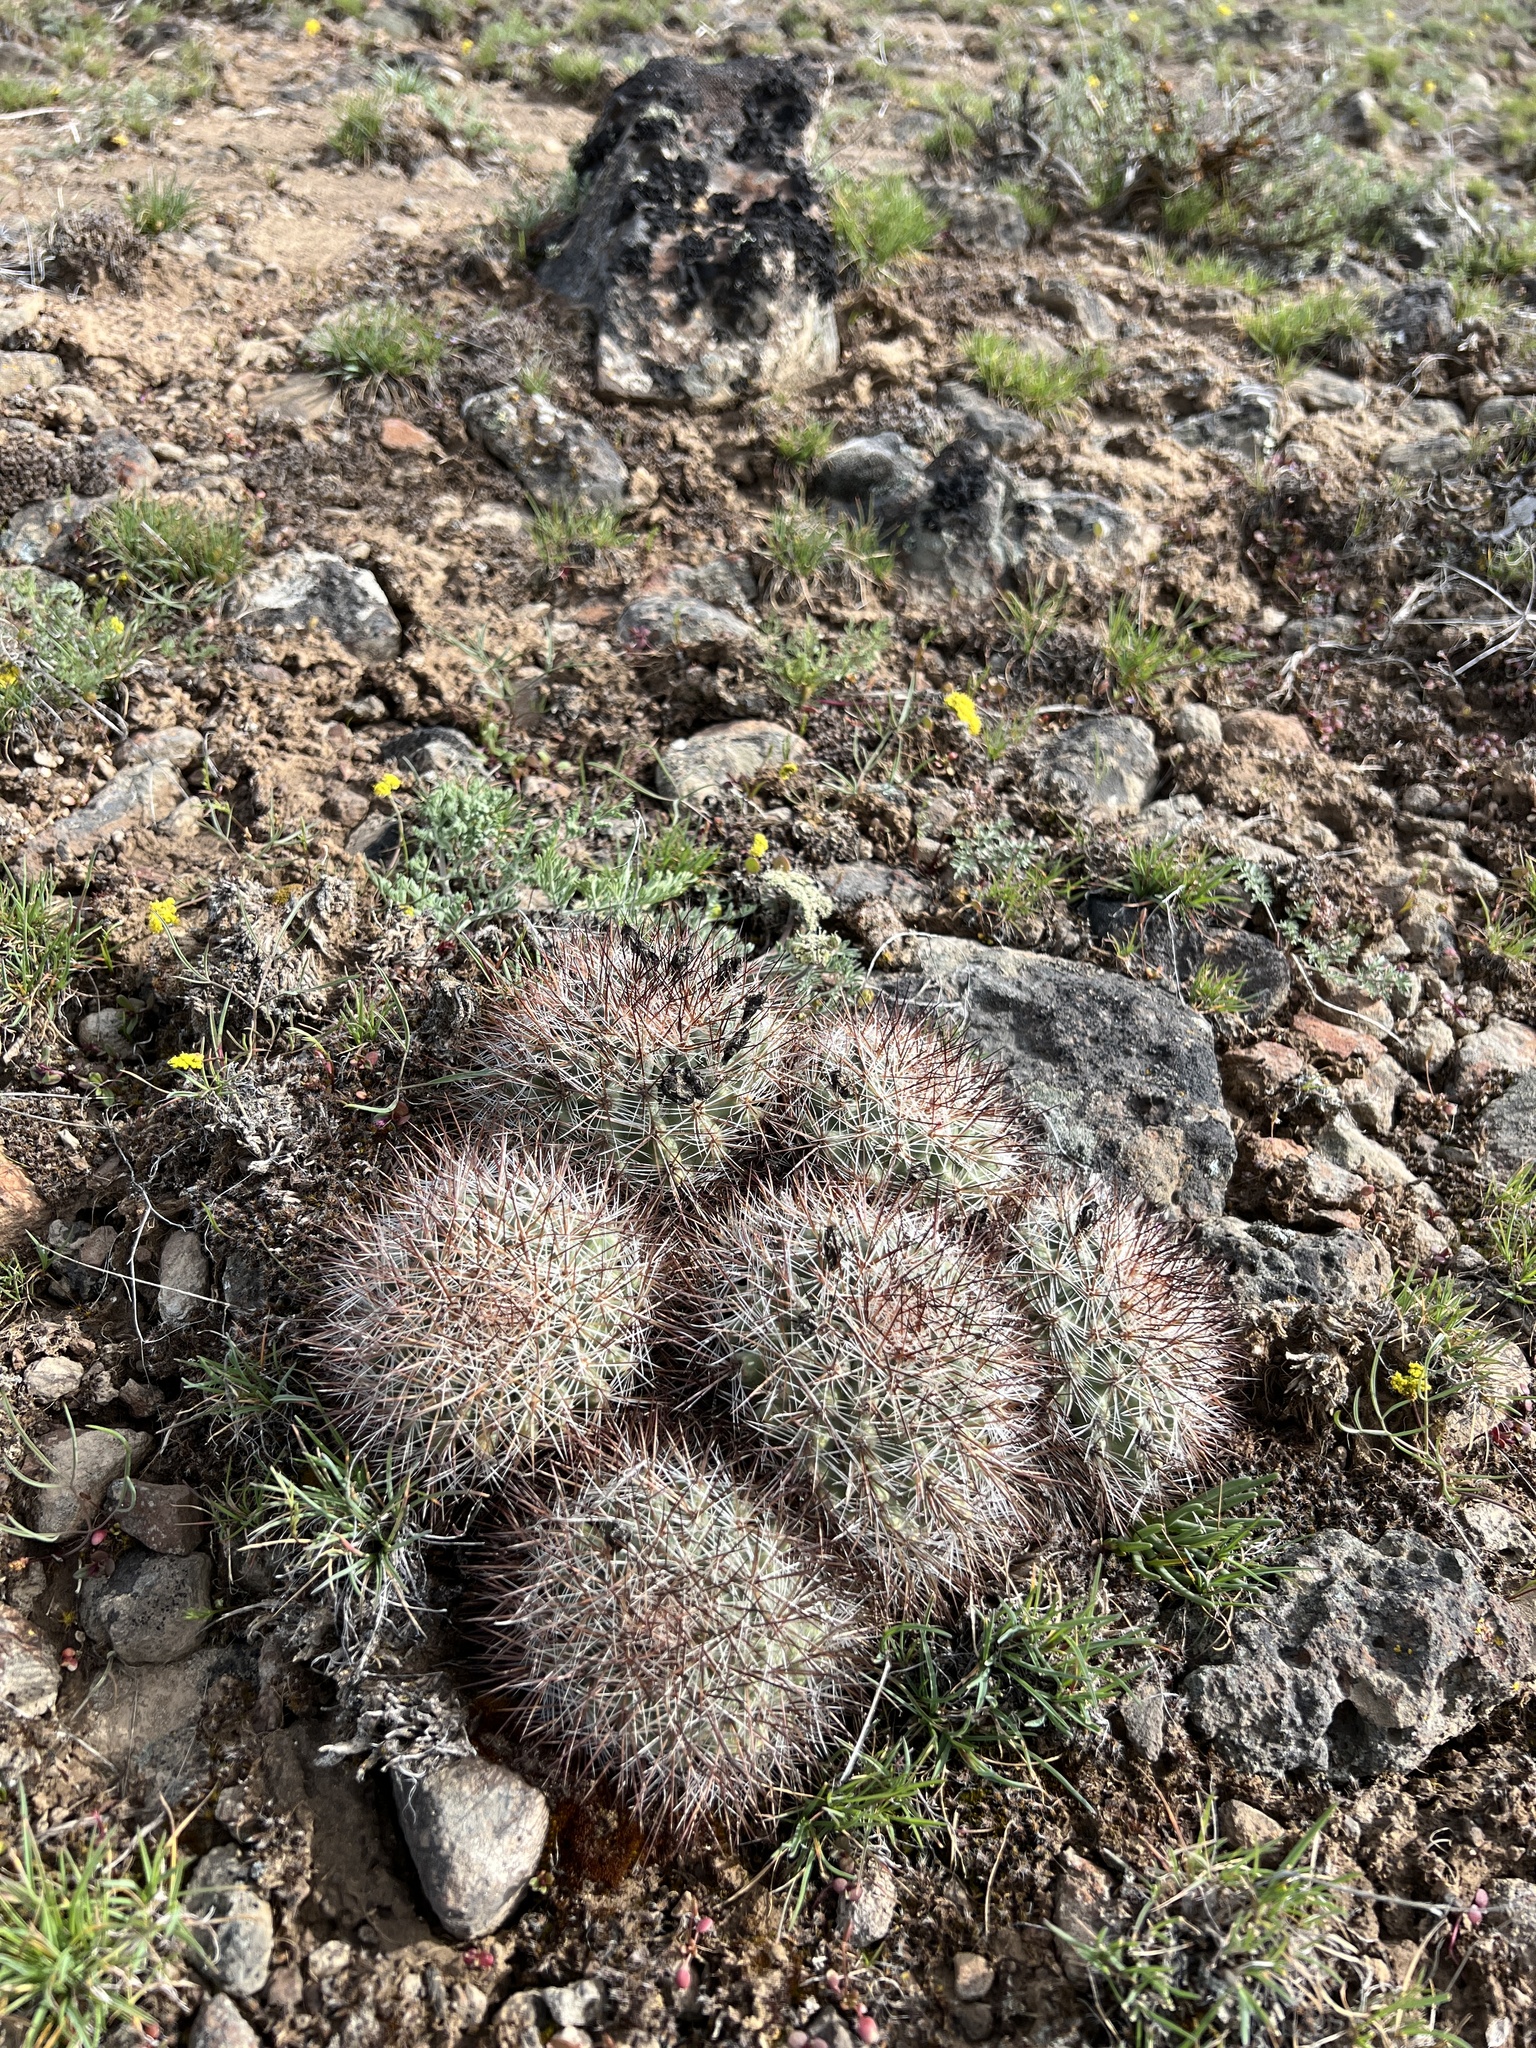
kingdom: Plantae
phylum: Tracheophyta
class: Magnoliopsida
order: Caryophyllales
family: Cactaceae
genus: Pediocactus
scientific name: Pediocactus nigrispinus
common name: Simpson's hedgehog cactus
